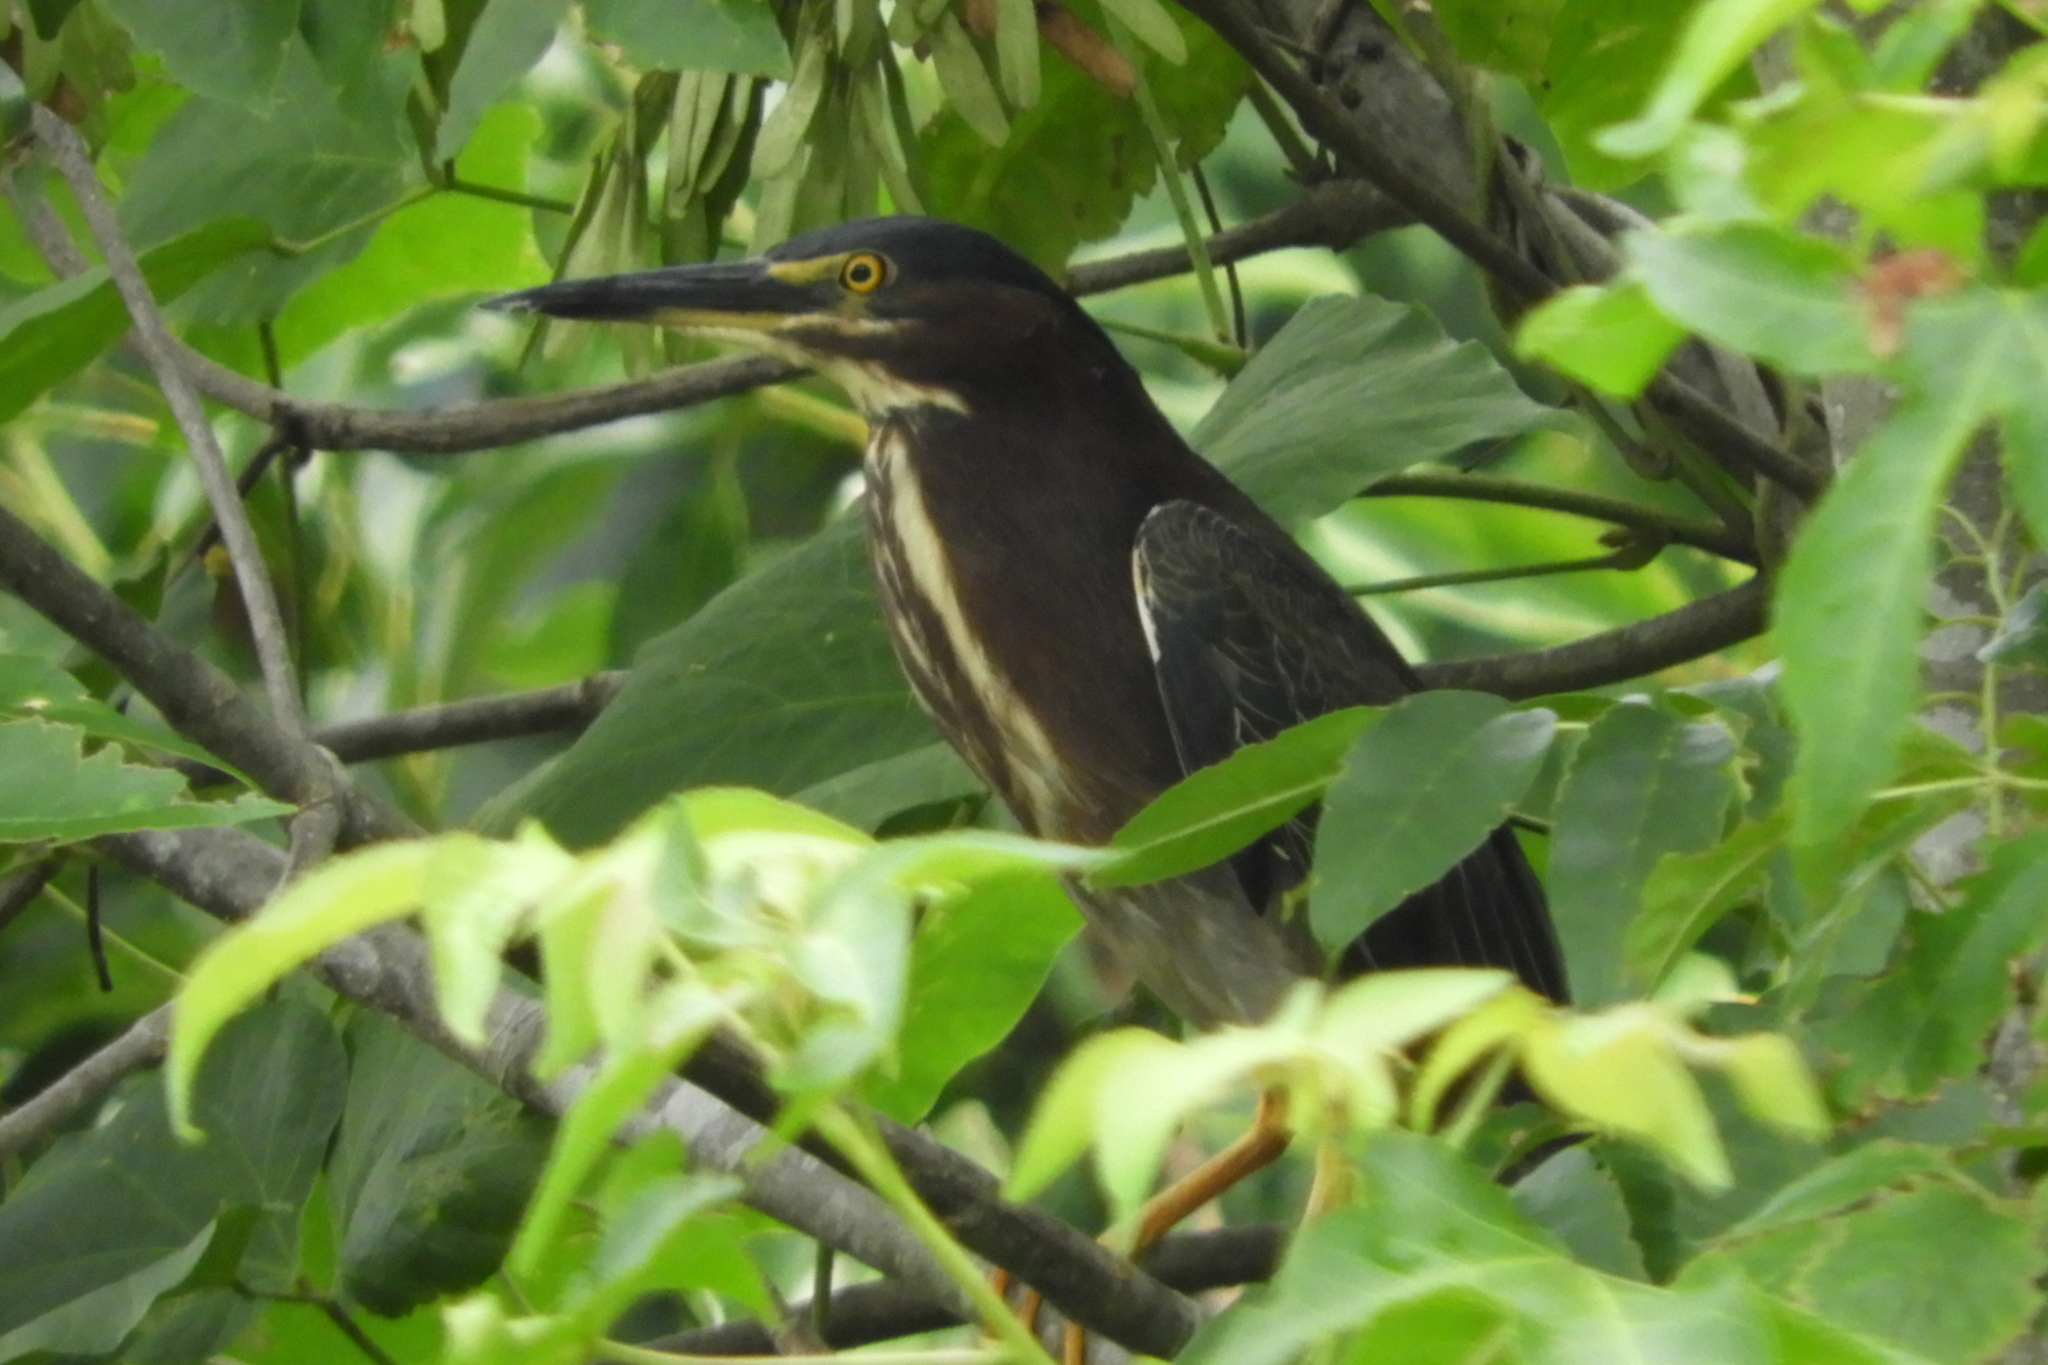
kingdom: Animalia
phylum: Chordata
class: Aves
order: Pelecaniformes
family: Ardeidae
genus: Butorides
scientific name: Butorides virescens
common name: Green heron
